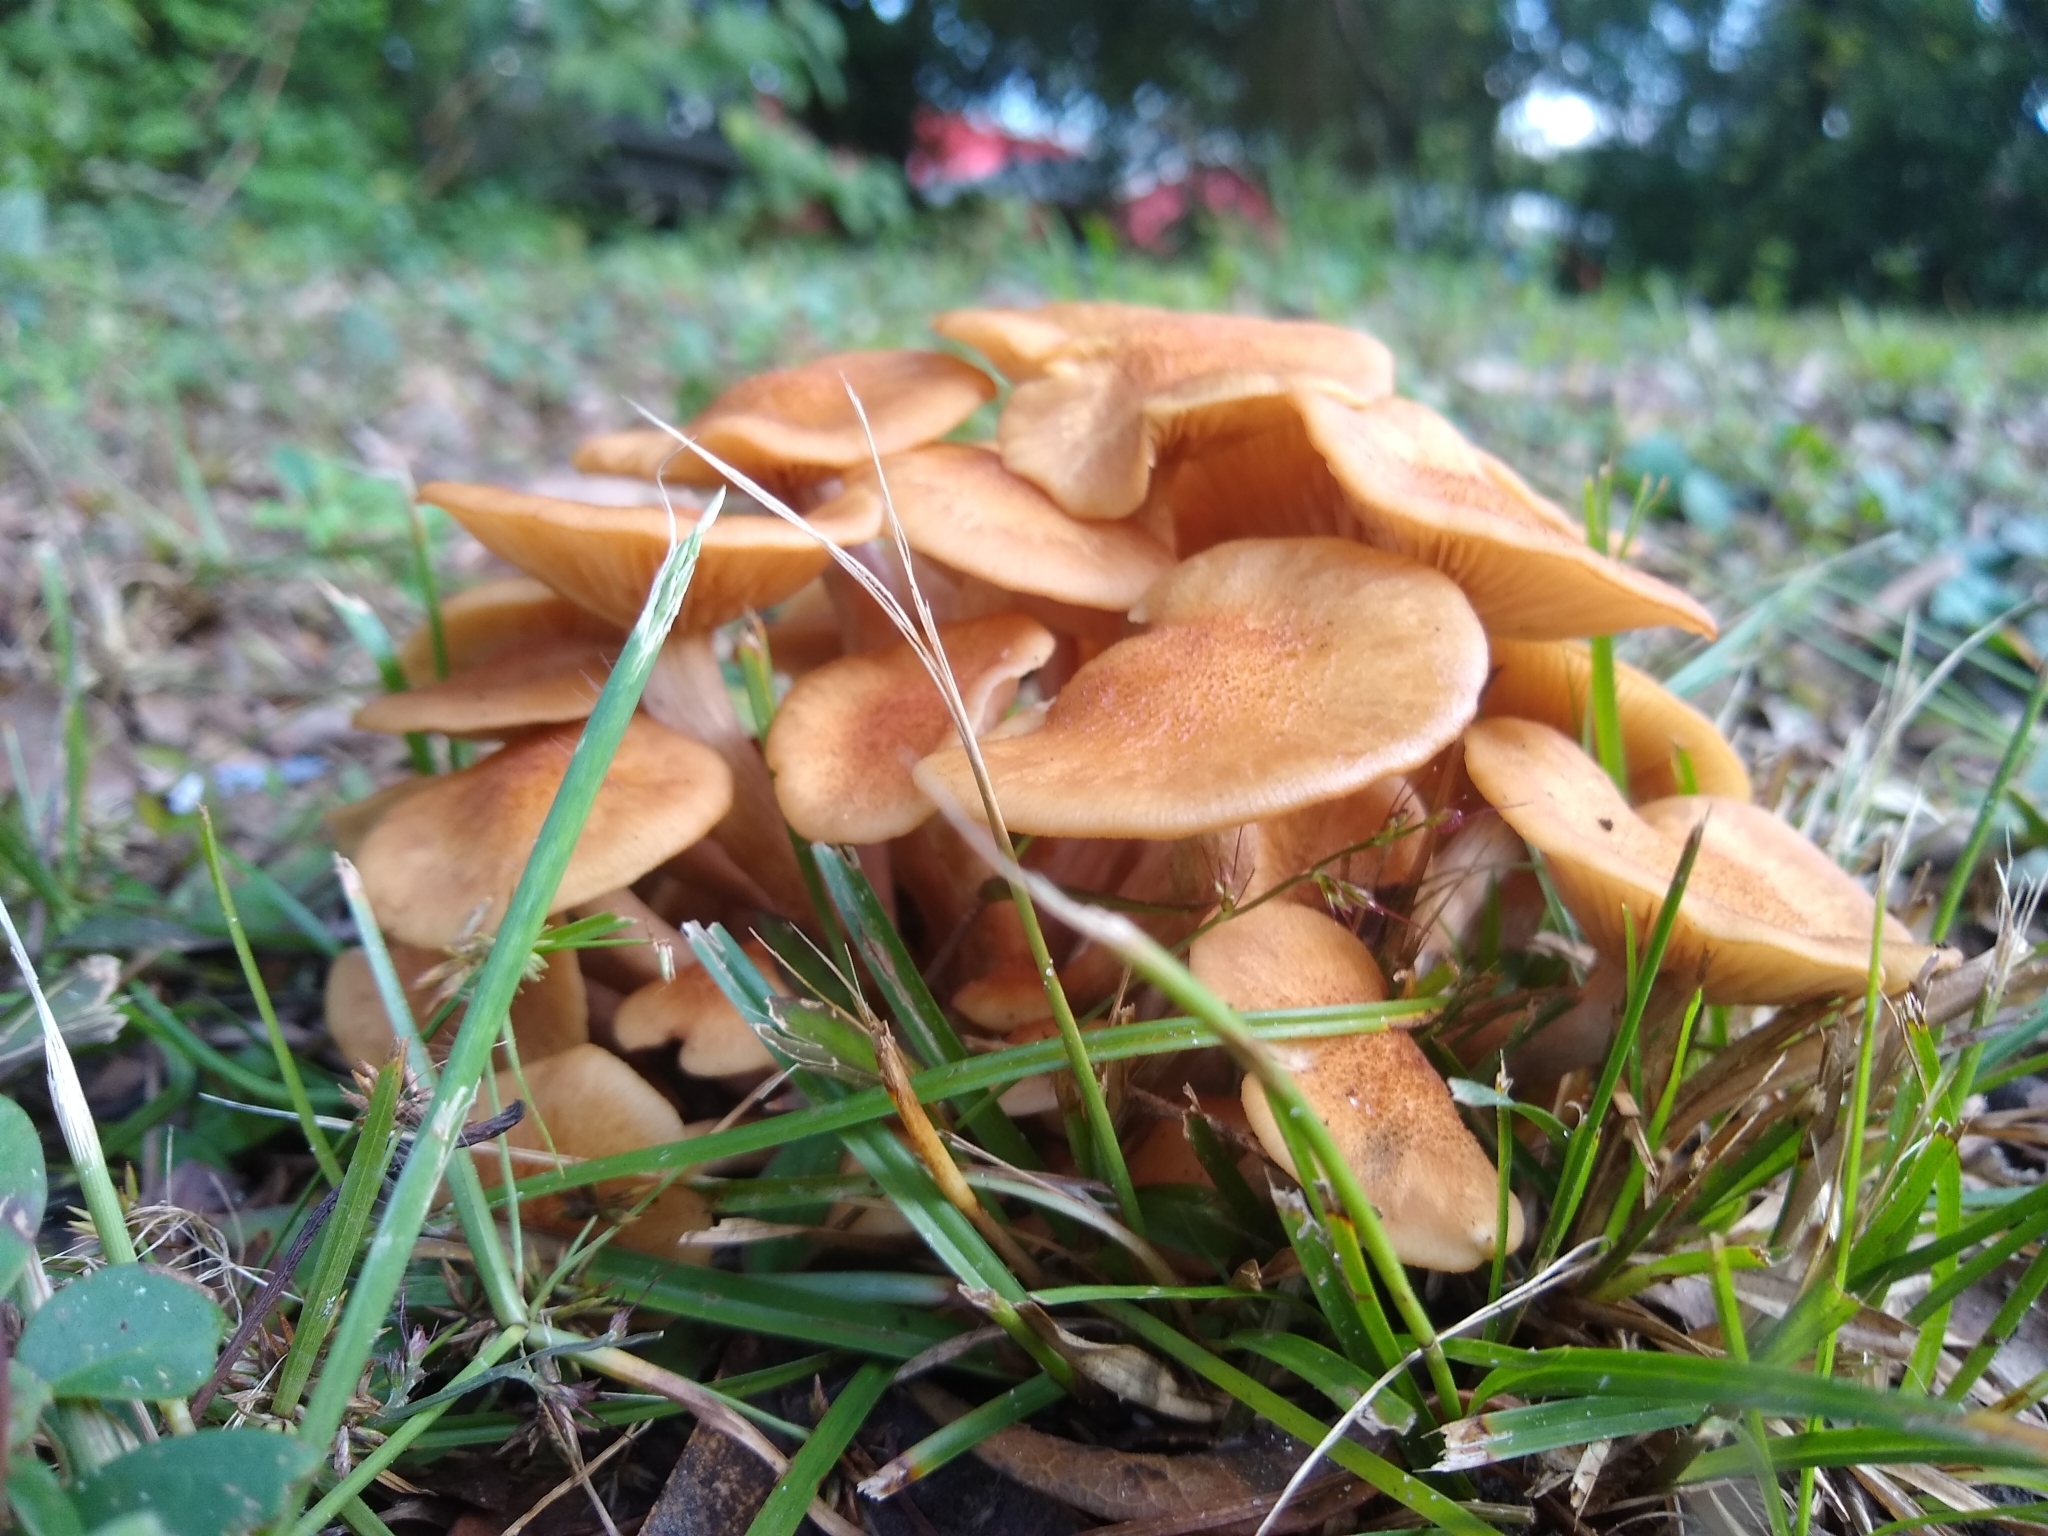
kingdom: Fungi
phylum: Basidiomycota
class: Agaricomycetes
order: Agaricales
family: Physalacriaceae
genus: Desarmillaria
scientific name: Desarmillaria caespitosa
